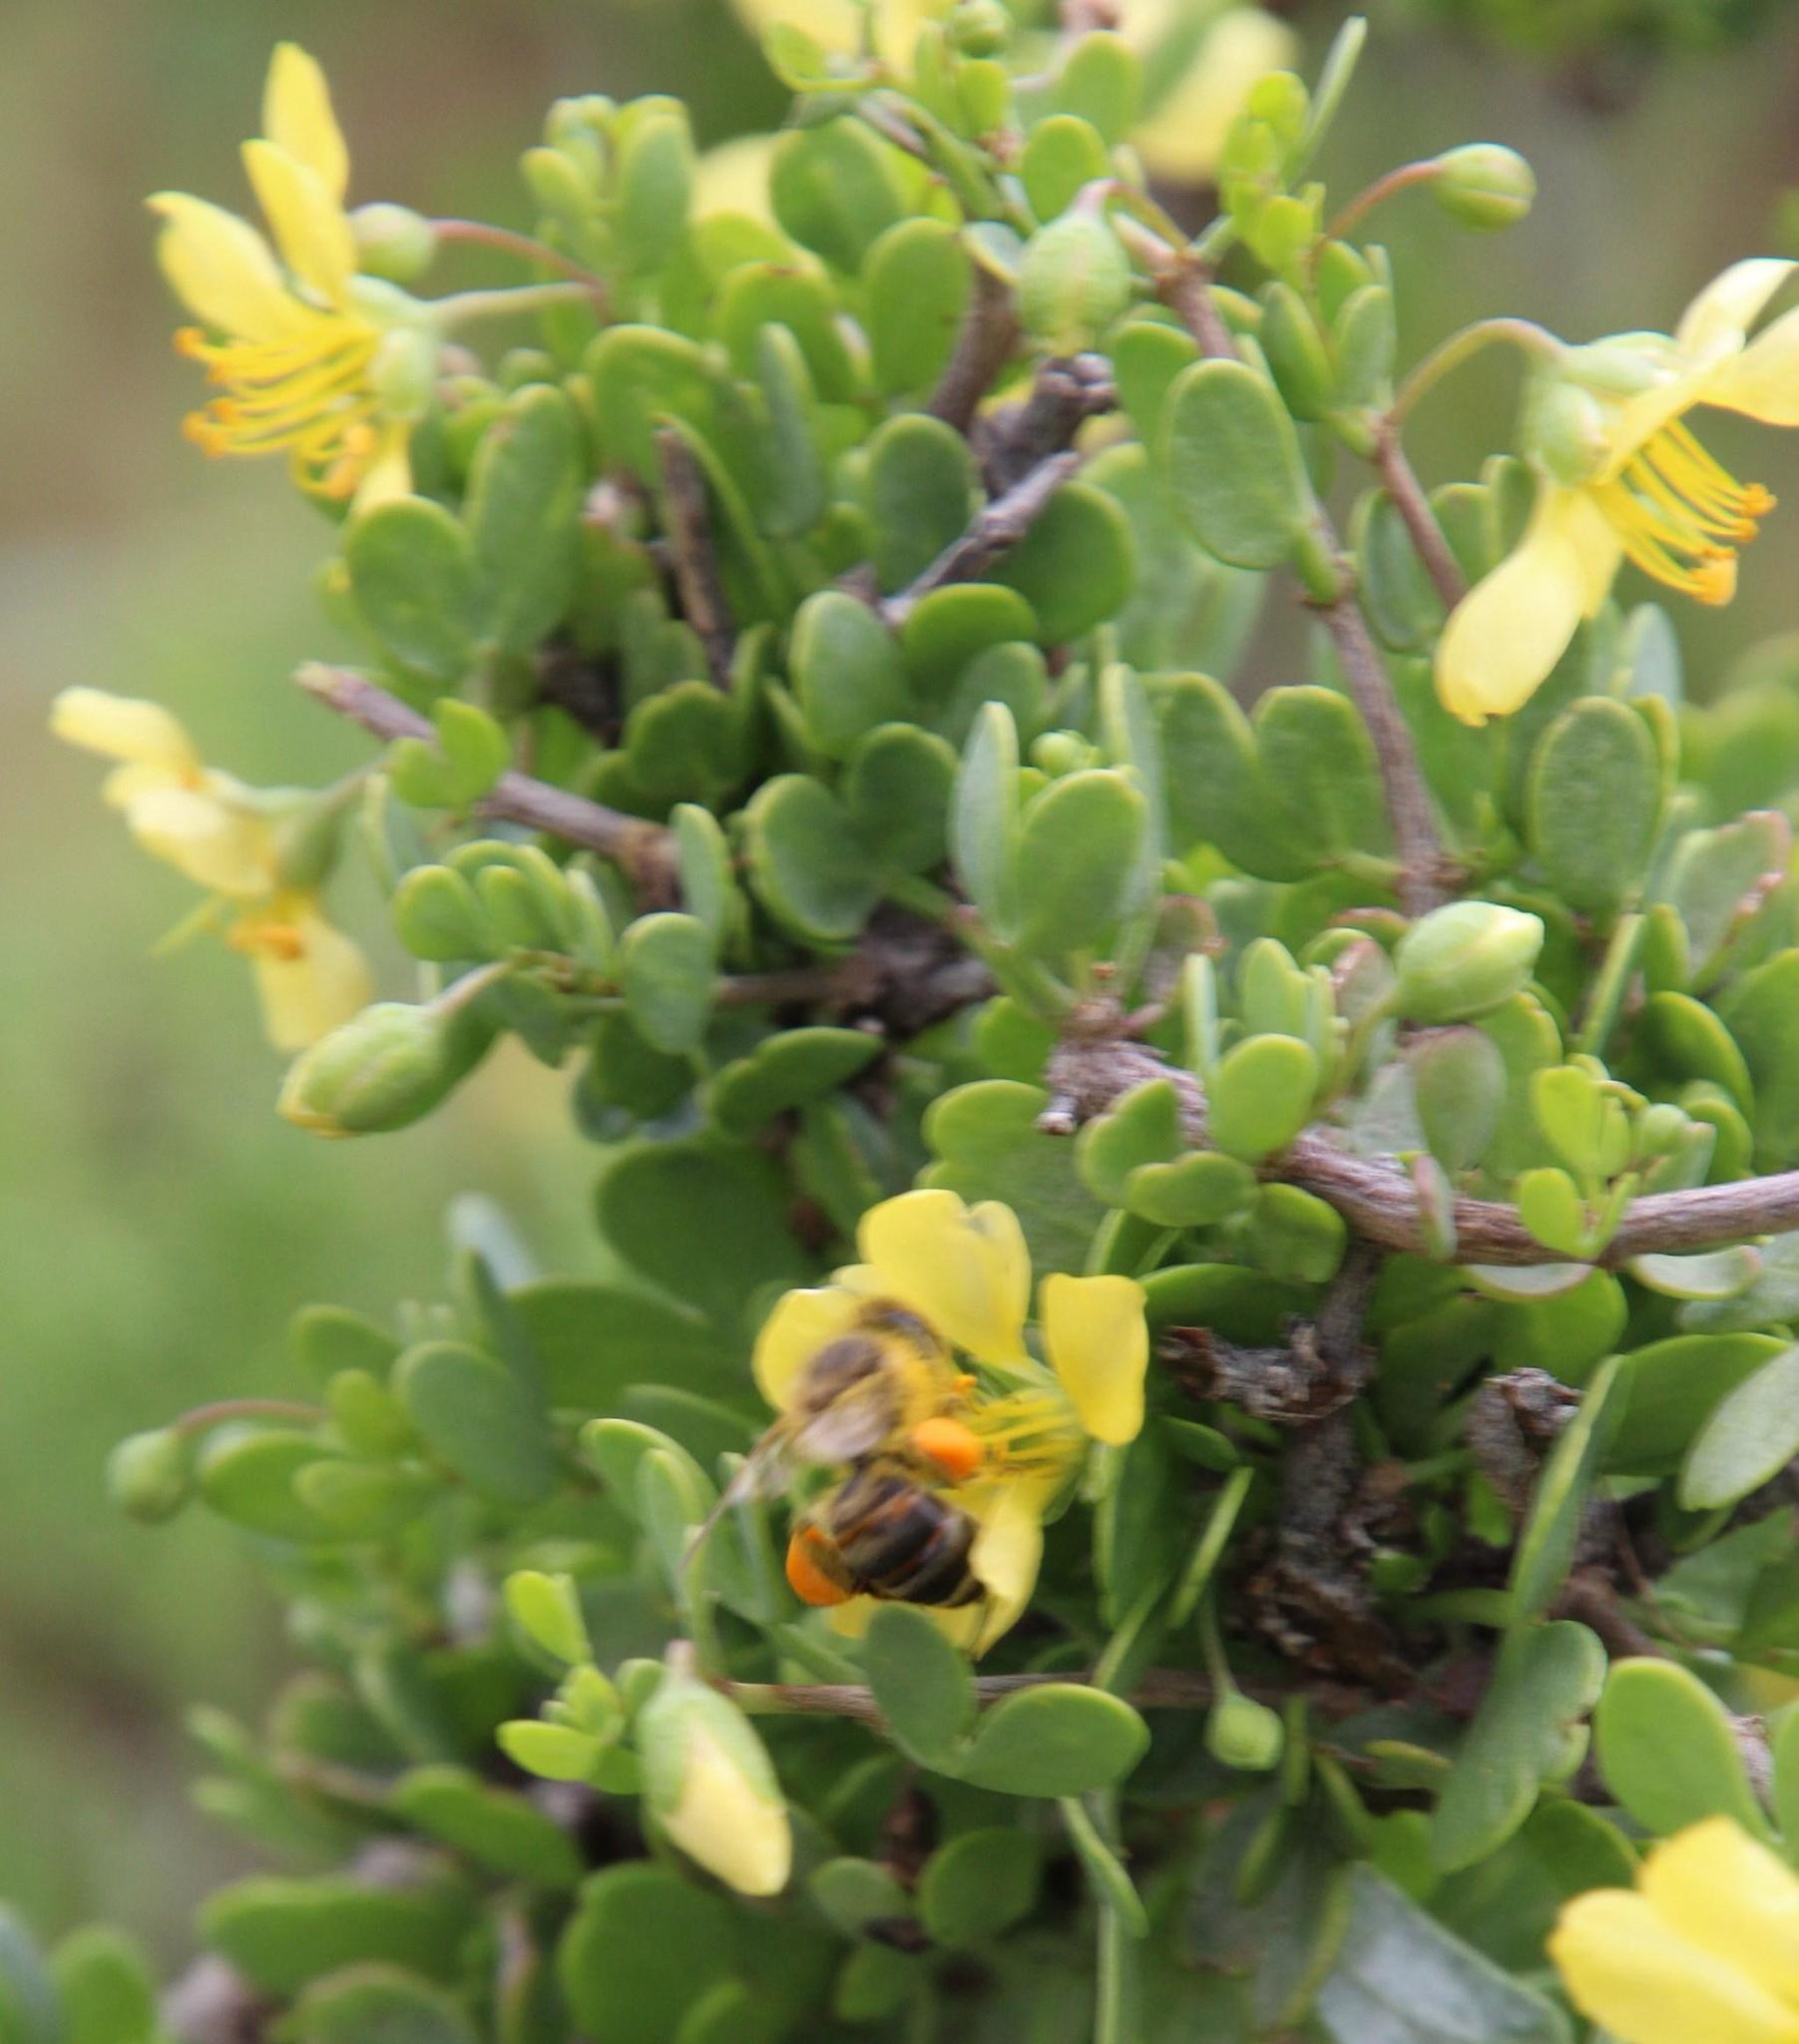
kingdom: Animalia
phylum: Arthropoda
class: Insecta
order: Hymenoptera
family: Apidae
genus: Apis
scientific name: Apis mellifera
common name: Honey bee
